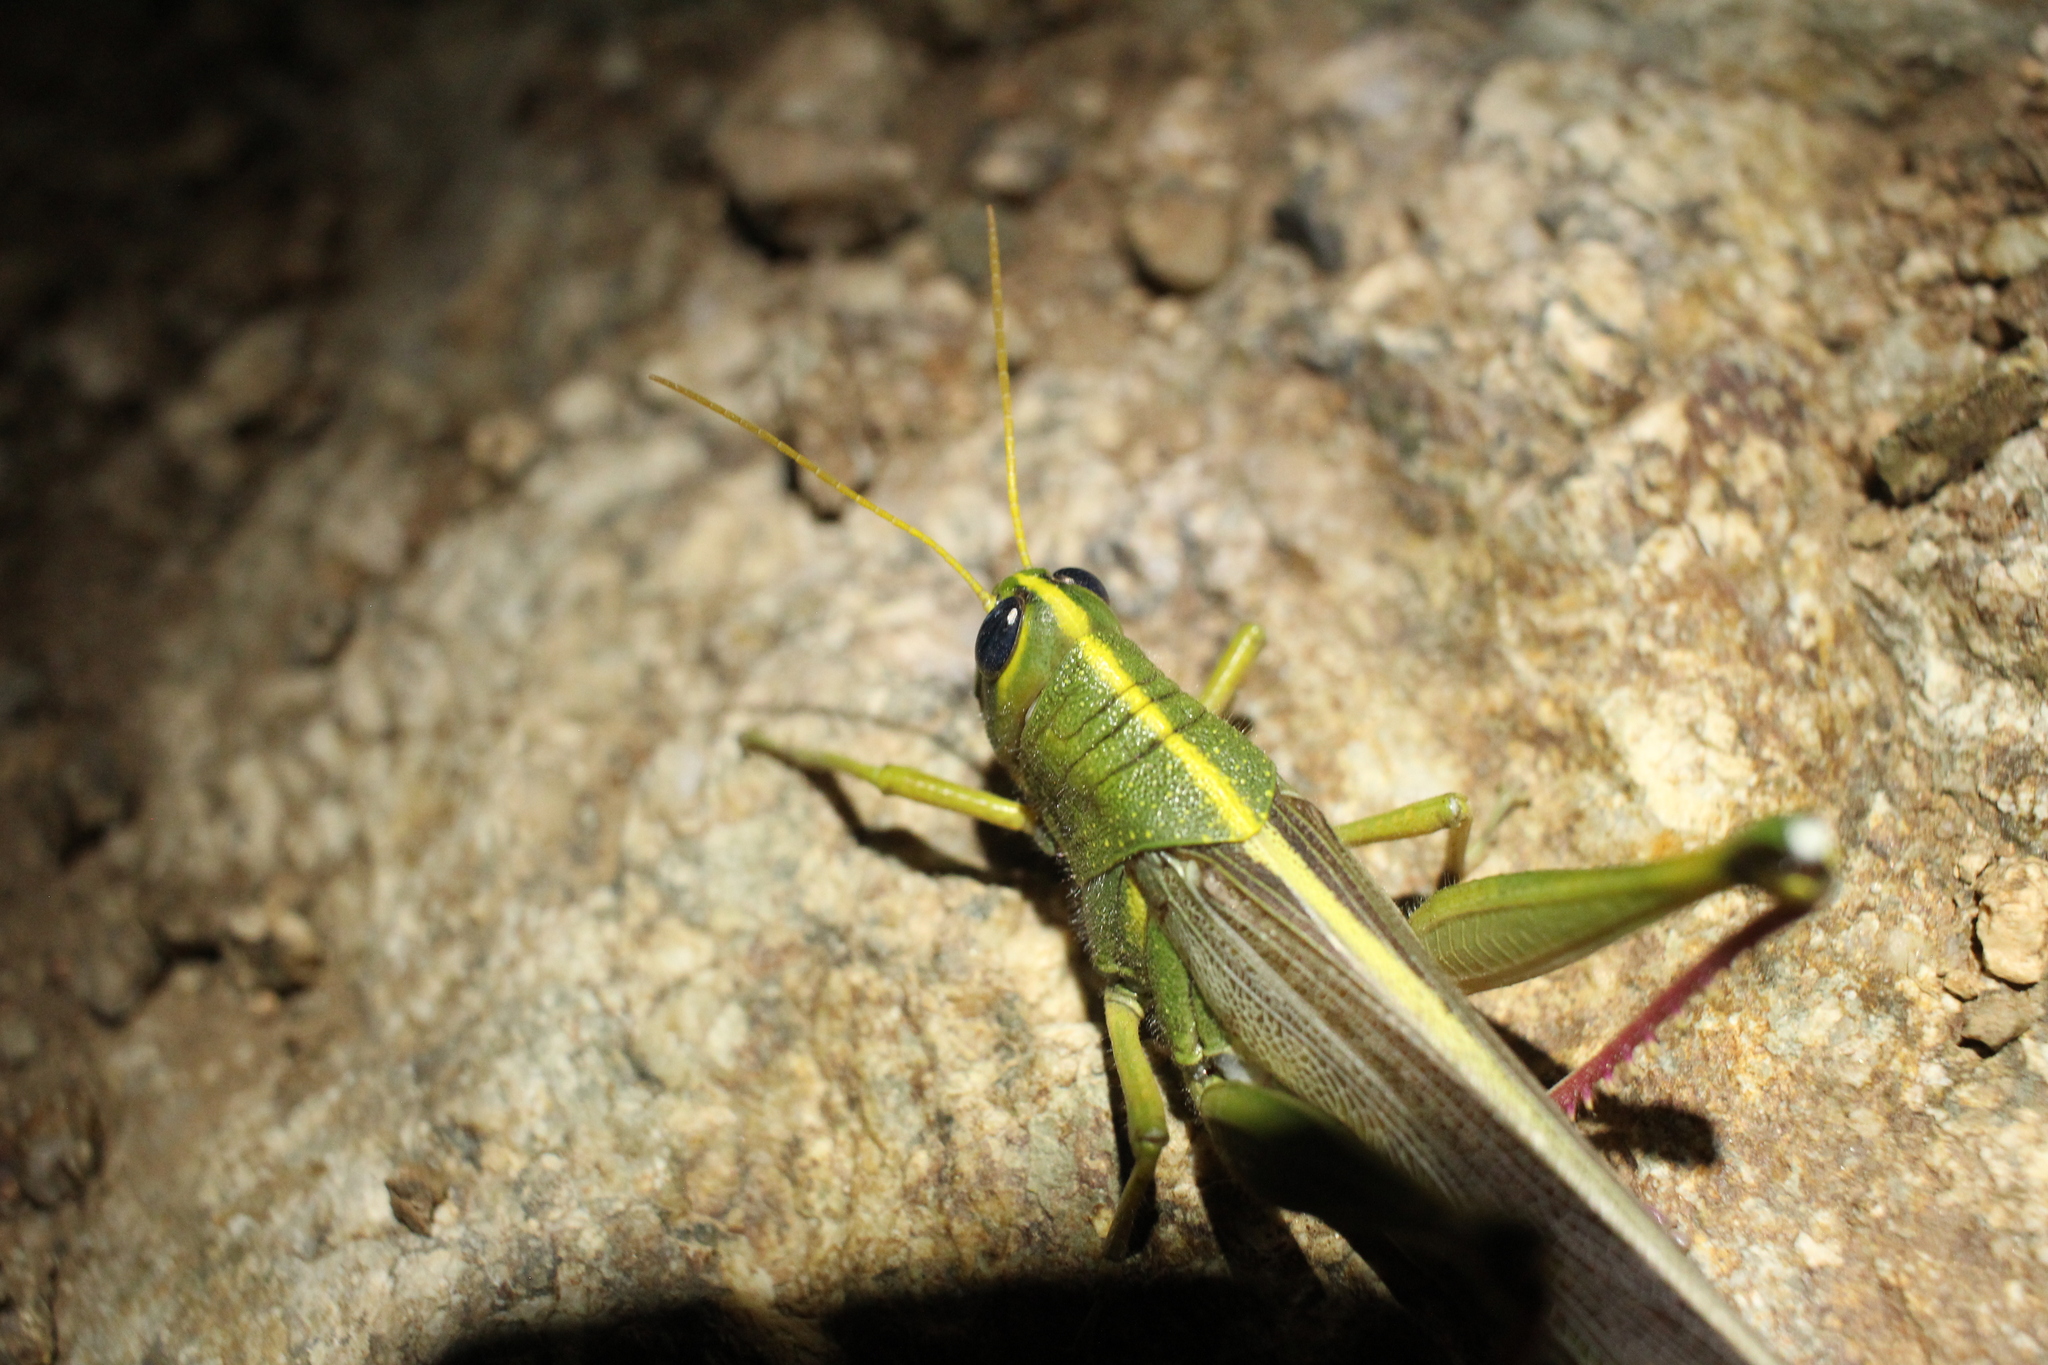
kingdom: Animalia
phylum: Arthropoda
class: Insecta
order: Orthoptera
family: Acrididae
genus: Schistocerca
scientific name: Schistocerca lineata
